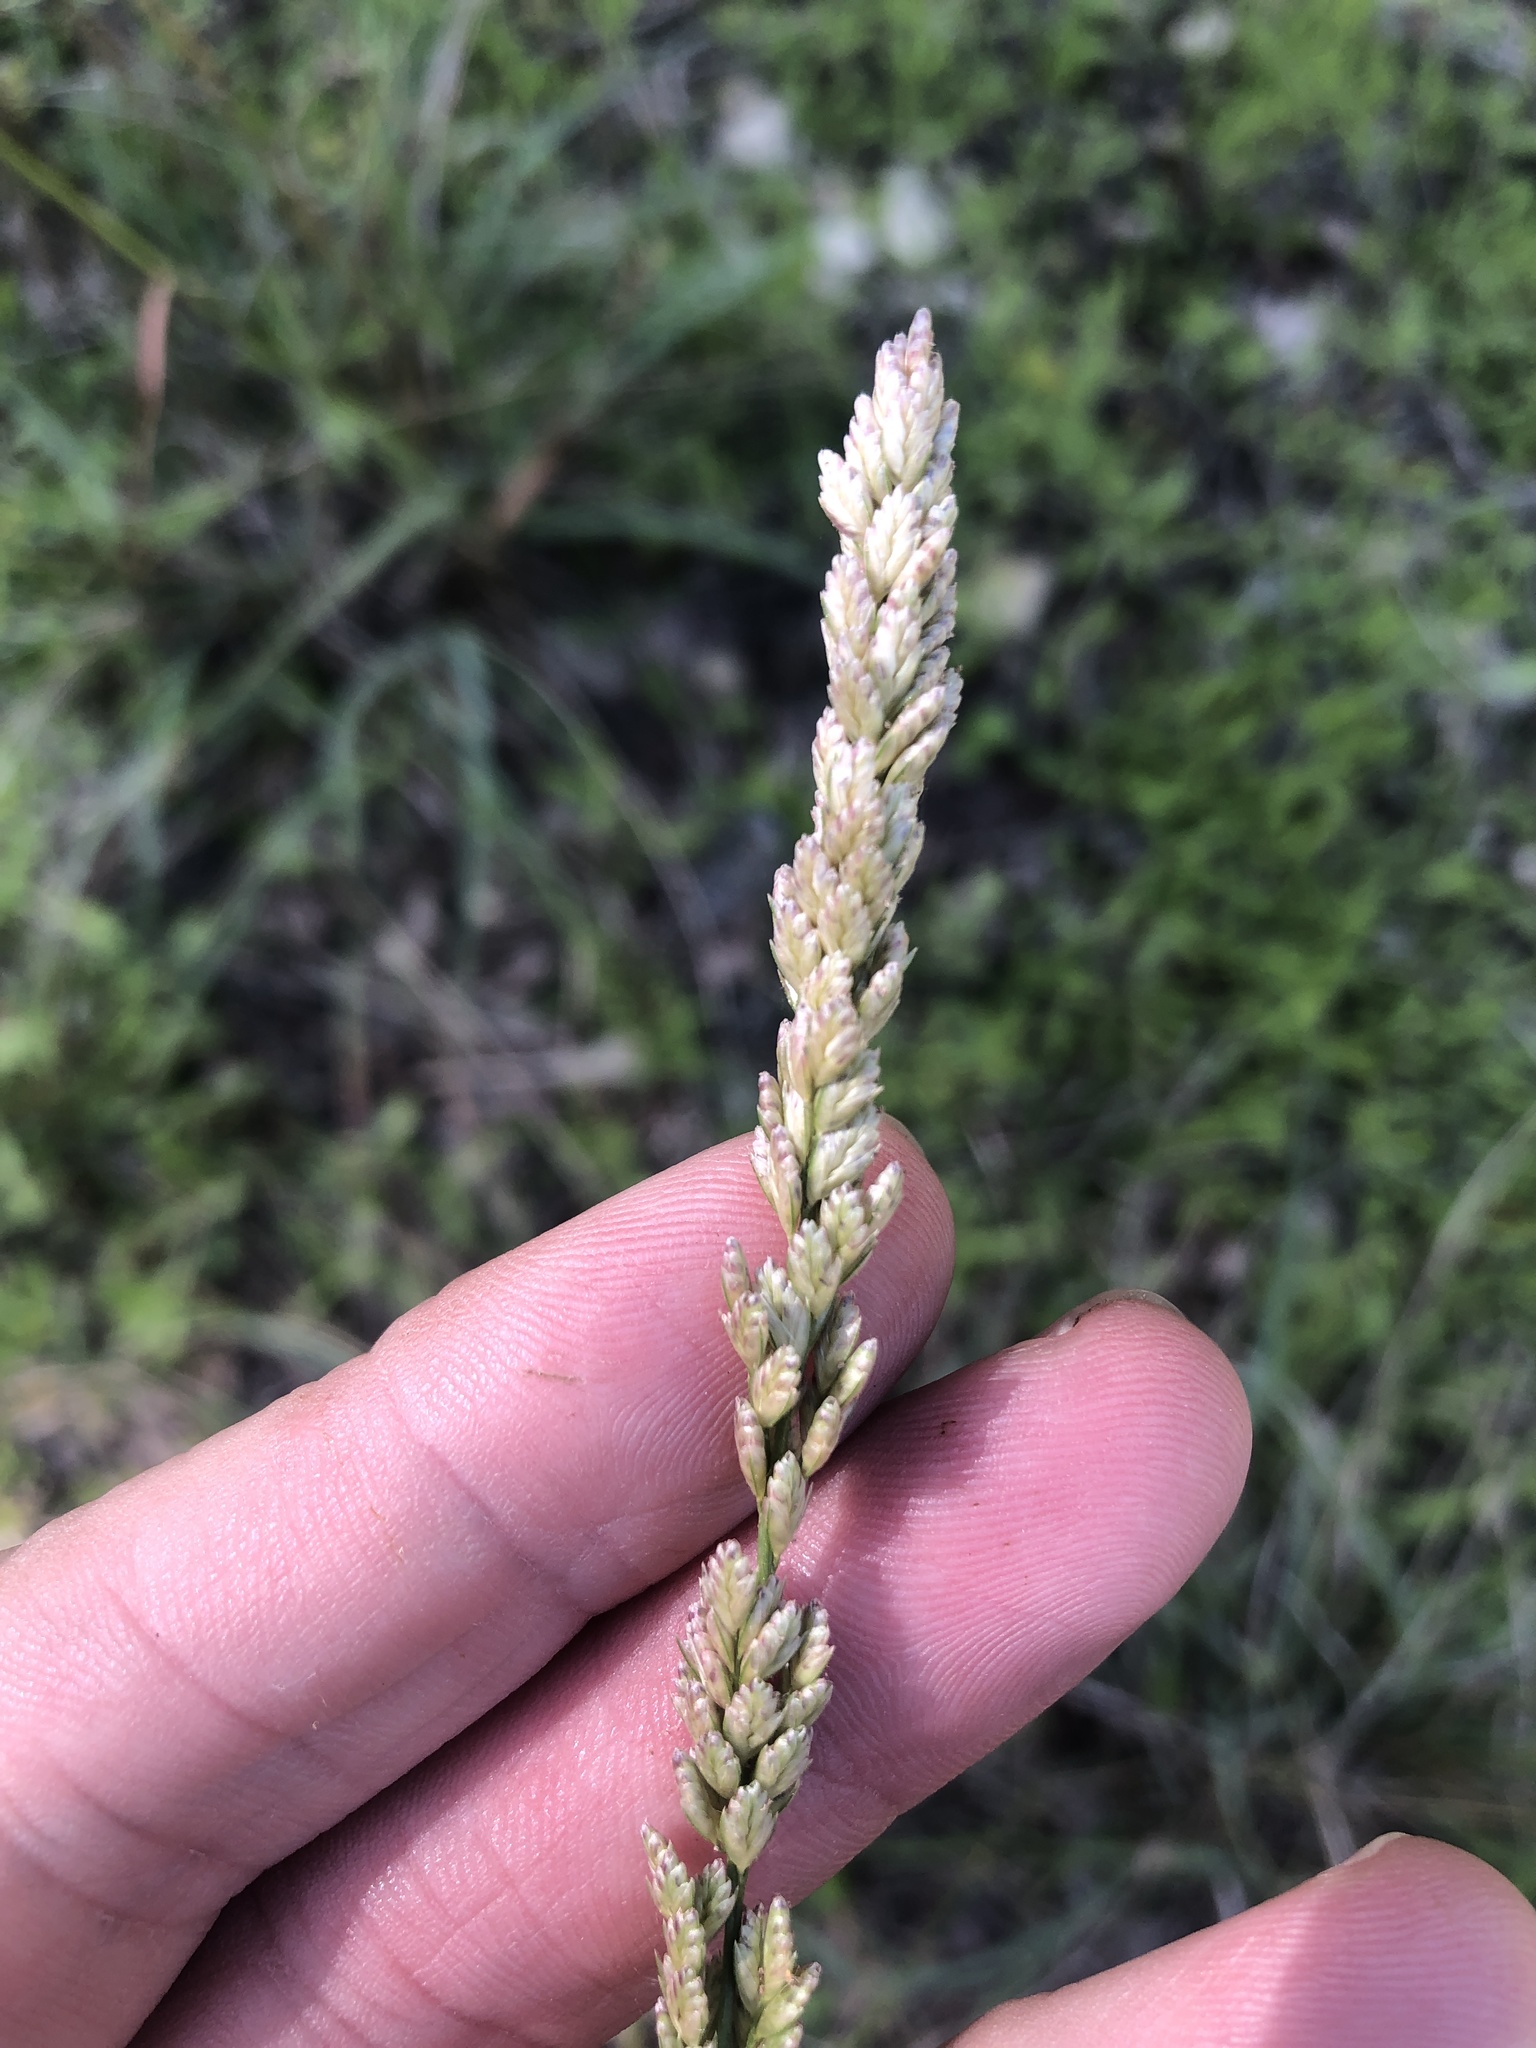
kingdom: Plantae
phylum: Tracheophyta
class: Liliopsida
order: Poales
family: Poaceae
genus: Tridens
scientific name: Tridens albescens
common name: White tridens
